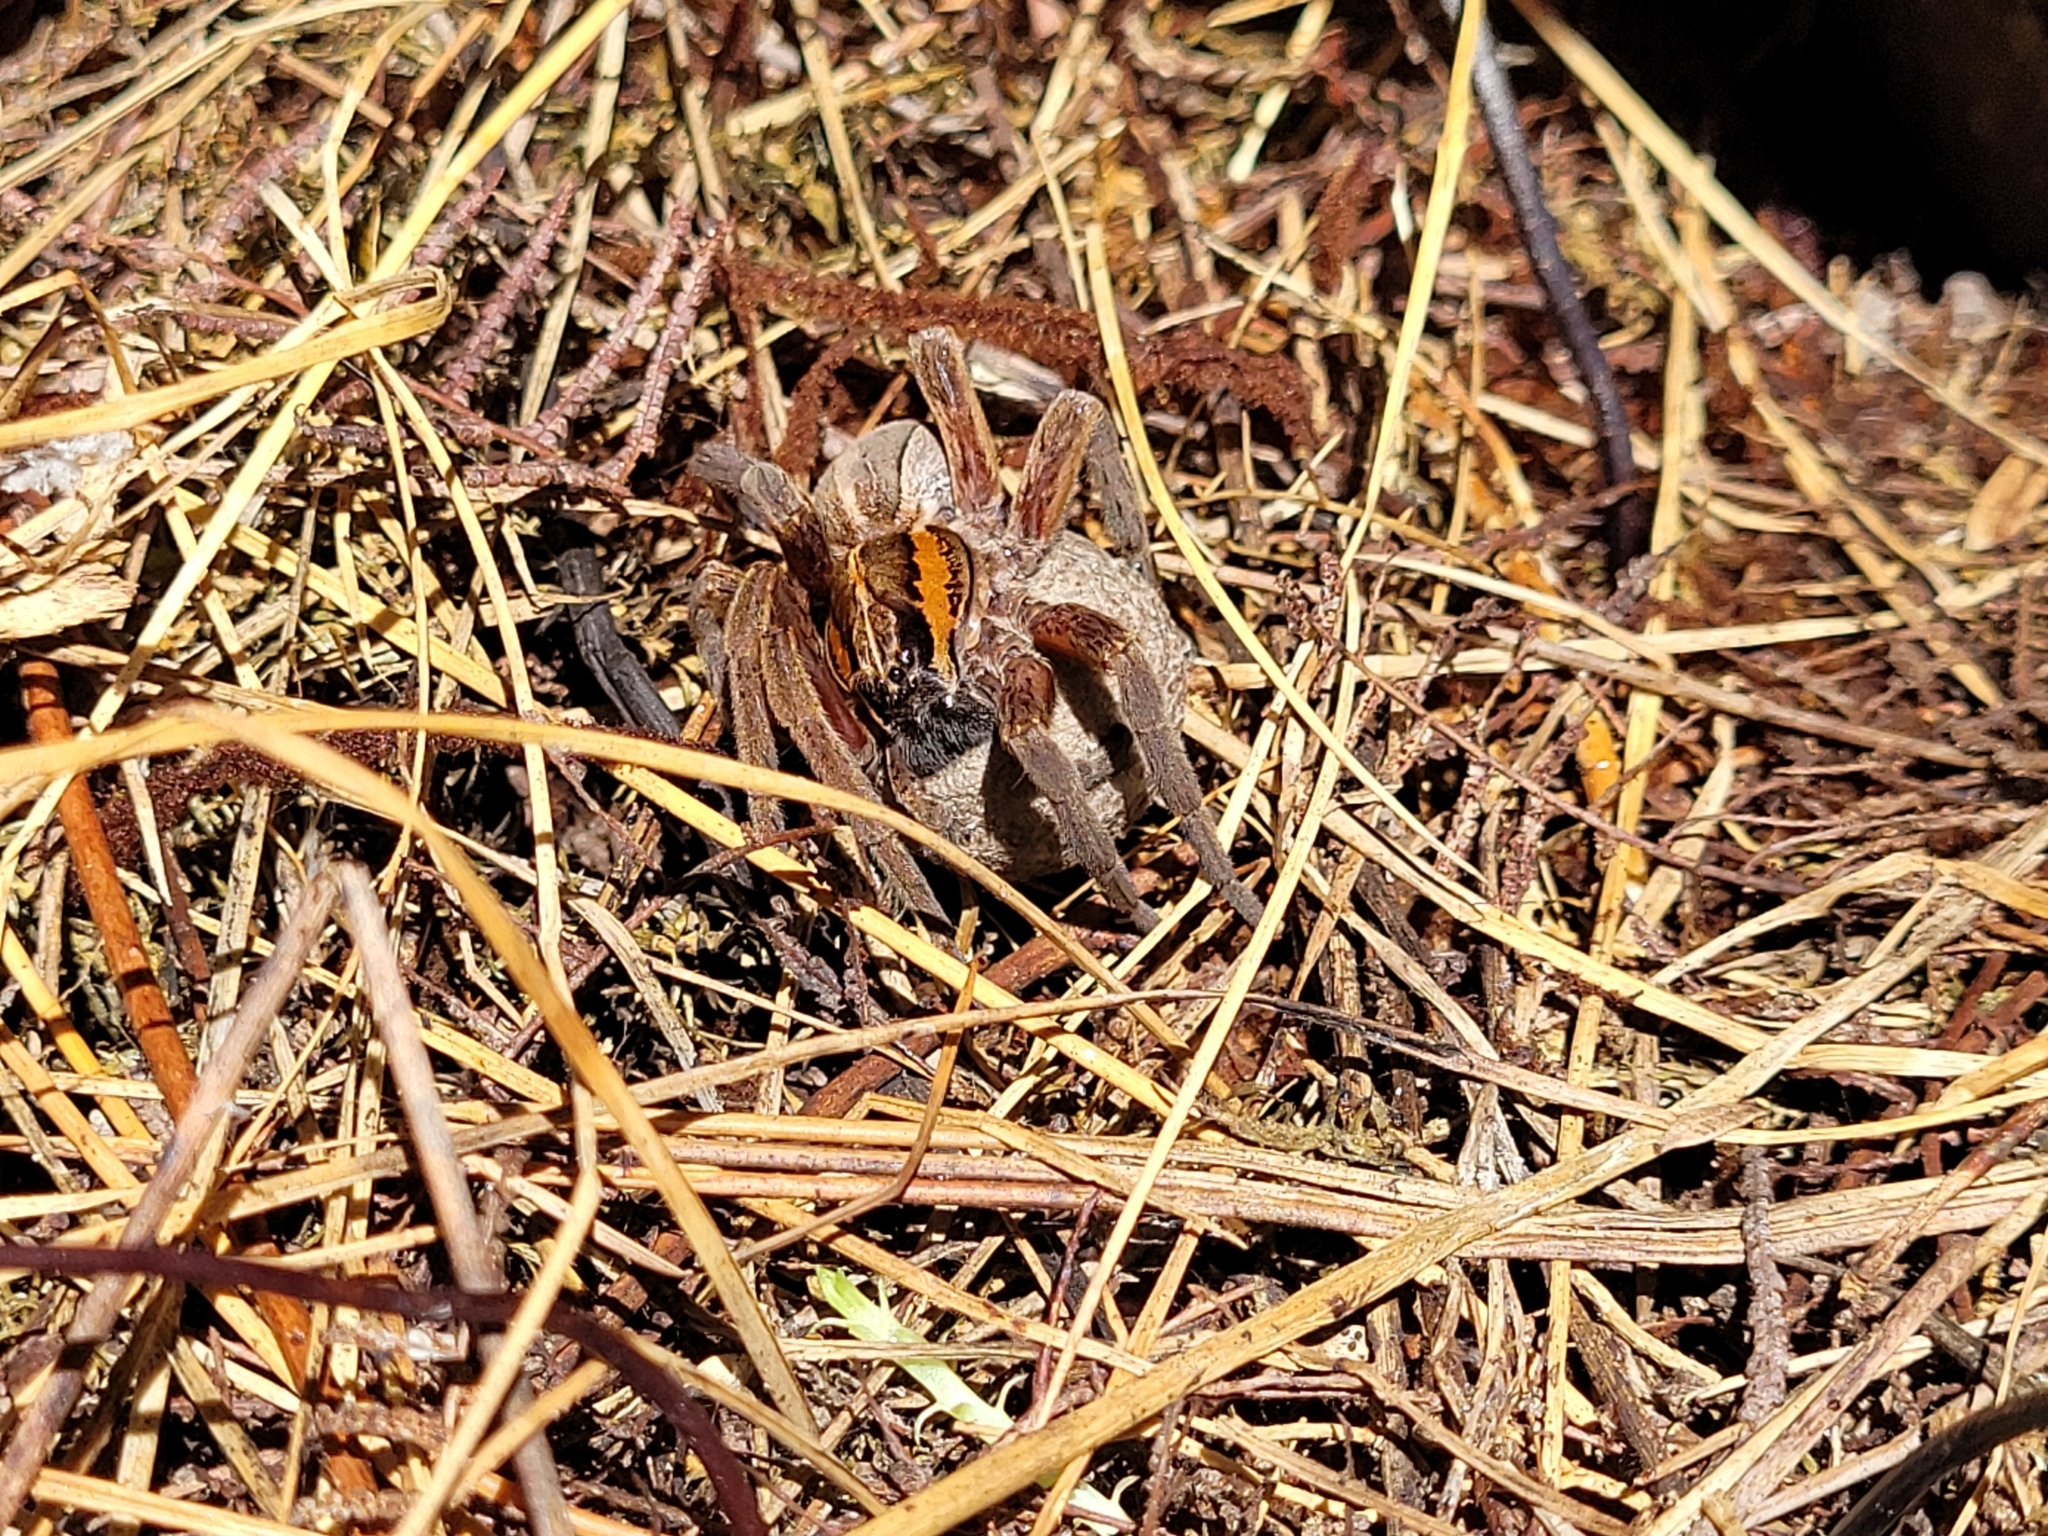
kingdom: Animalia
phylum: Arthropoda
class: Arachnida
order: Araneae
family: Pisauridae
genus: Dolomedes
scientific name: Dolomedes minor
